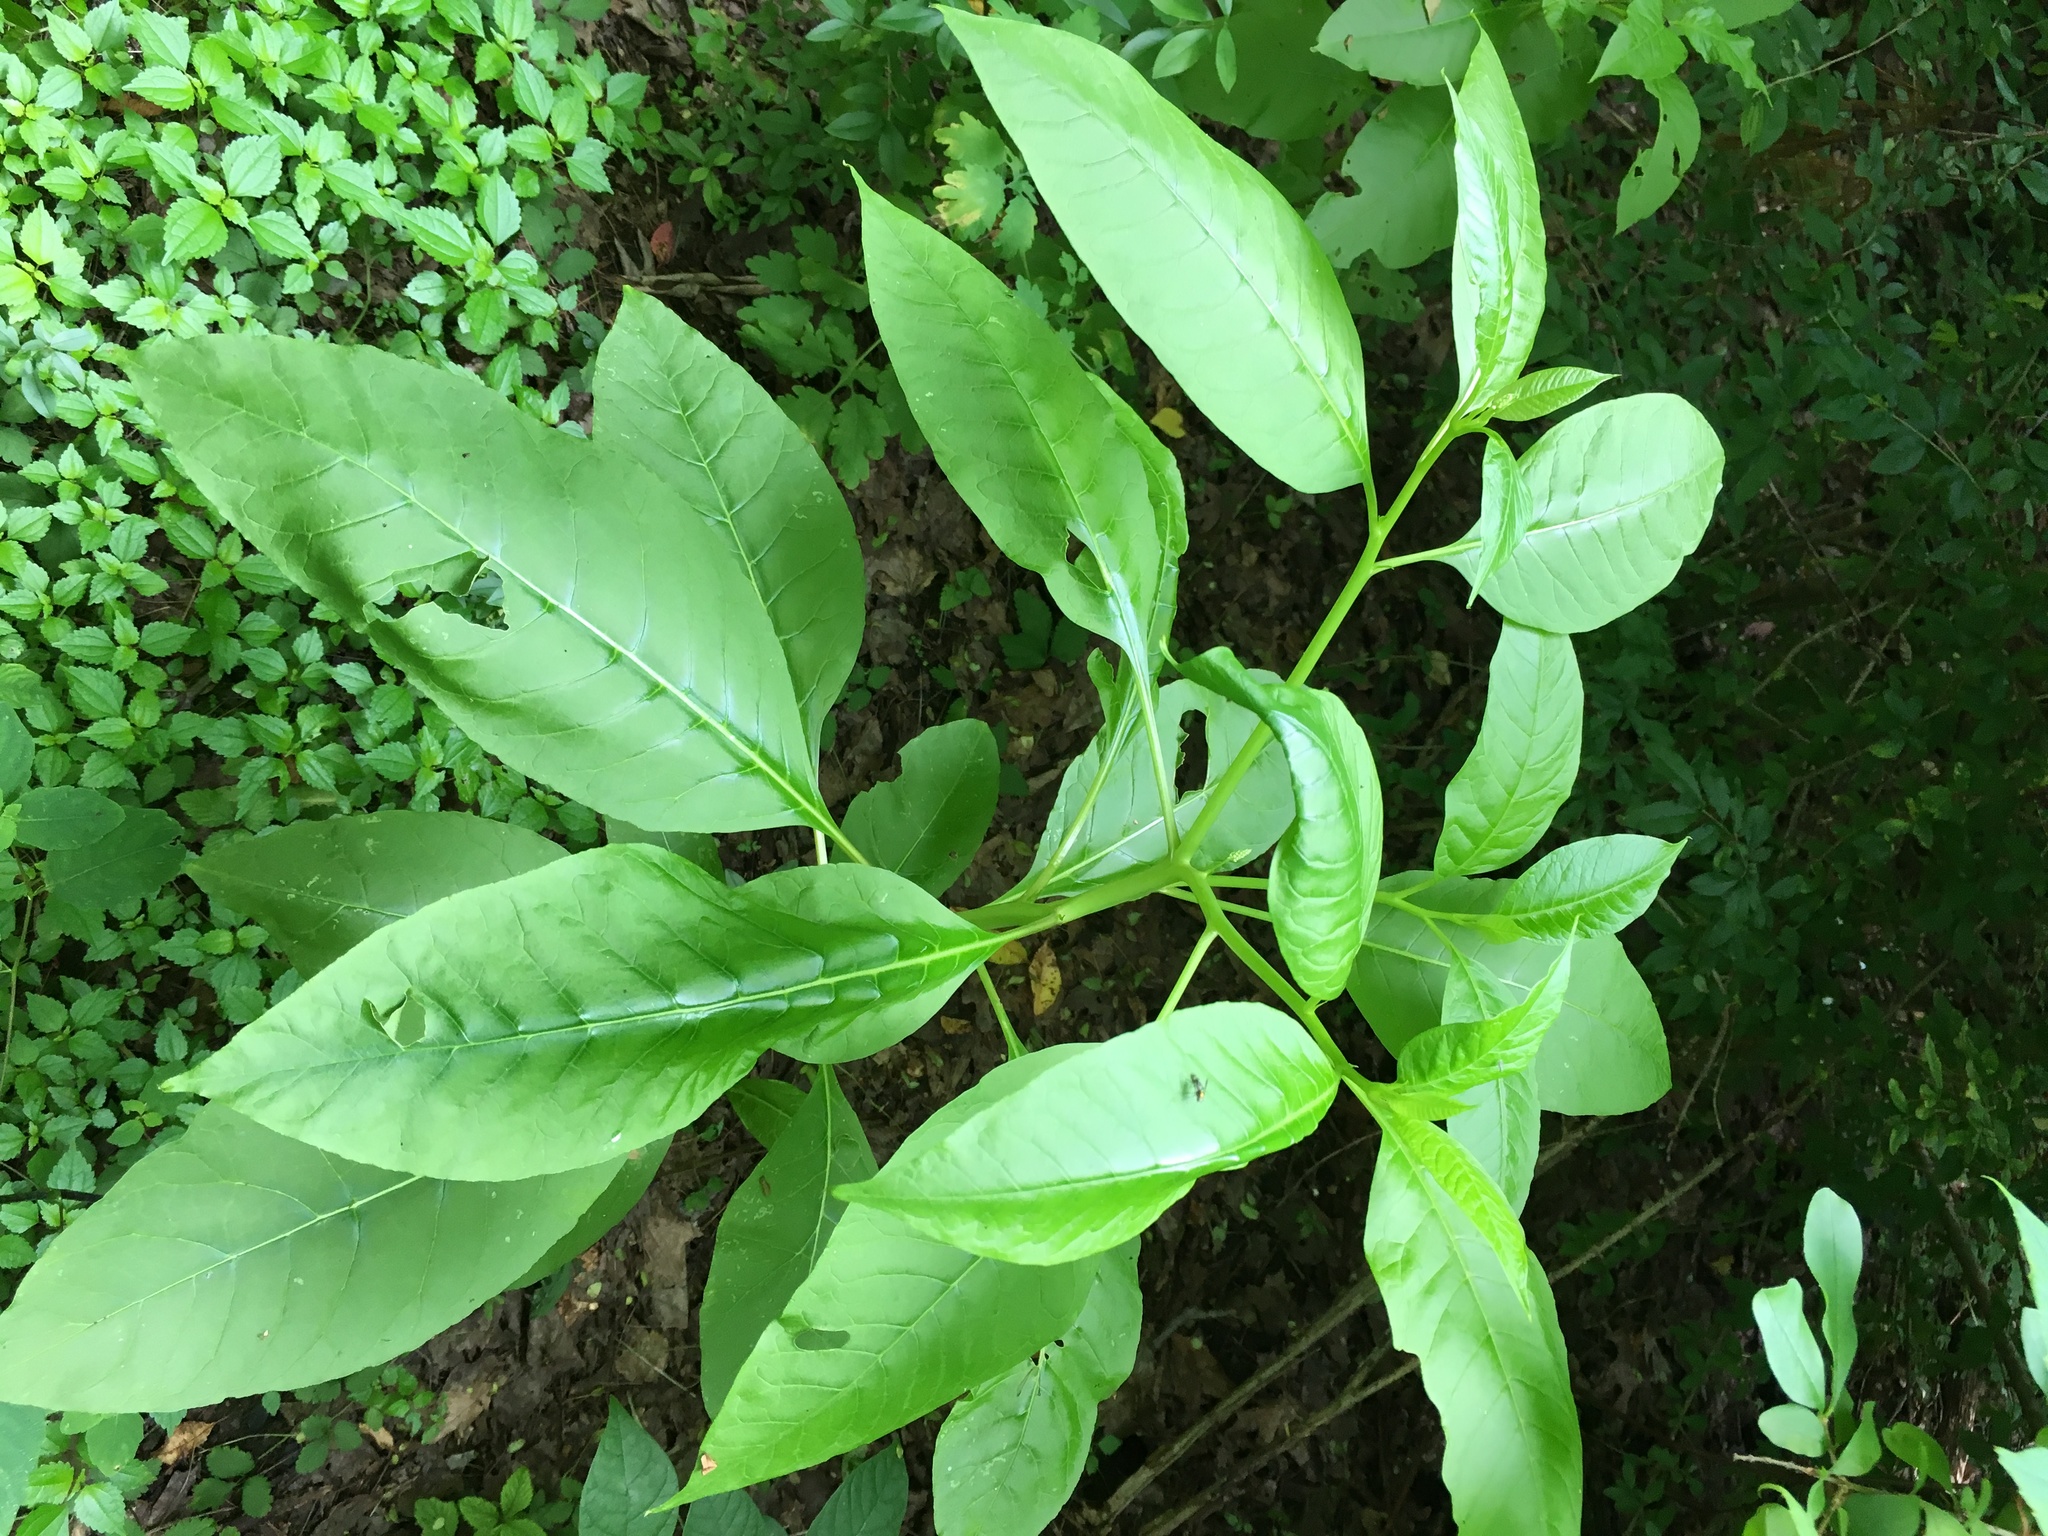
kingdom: Plantae
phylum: Tracheophyta
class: Magnoliopsida
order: Caryophyllales
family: Phytolaccaceae
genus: Phytolacca
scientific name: Phytolacca americana
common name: American pokeweed
